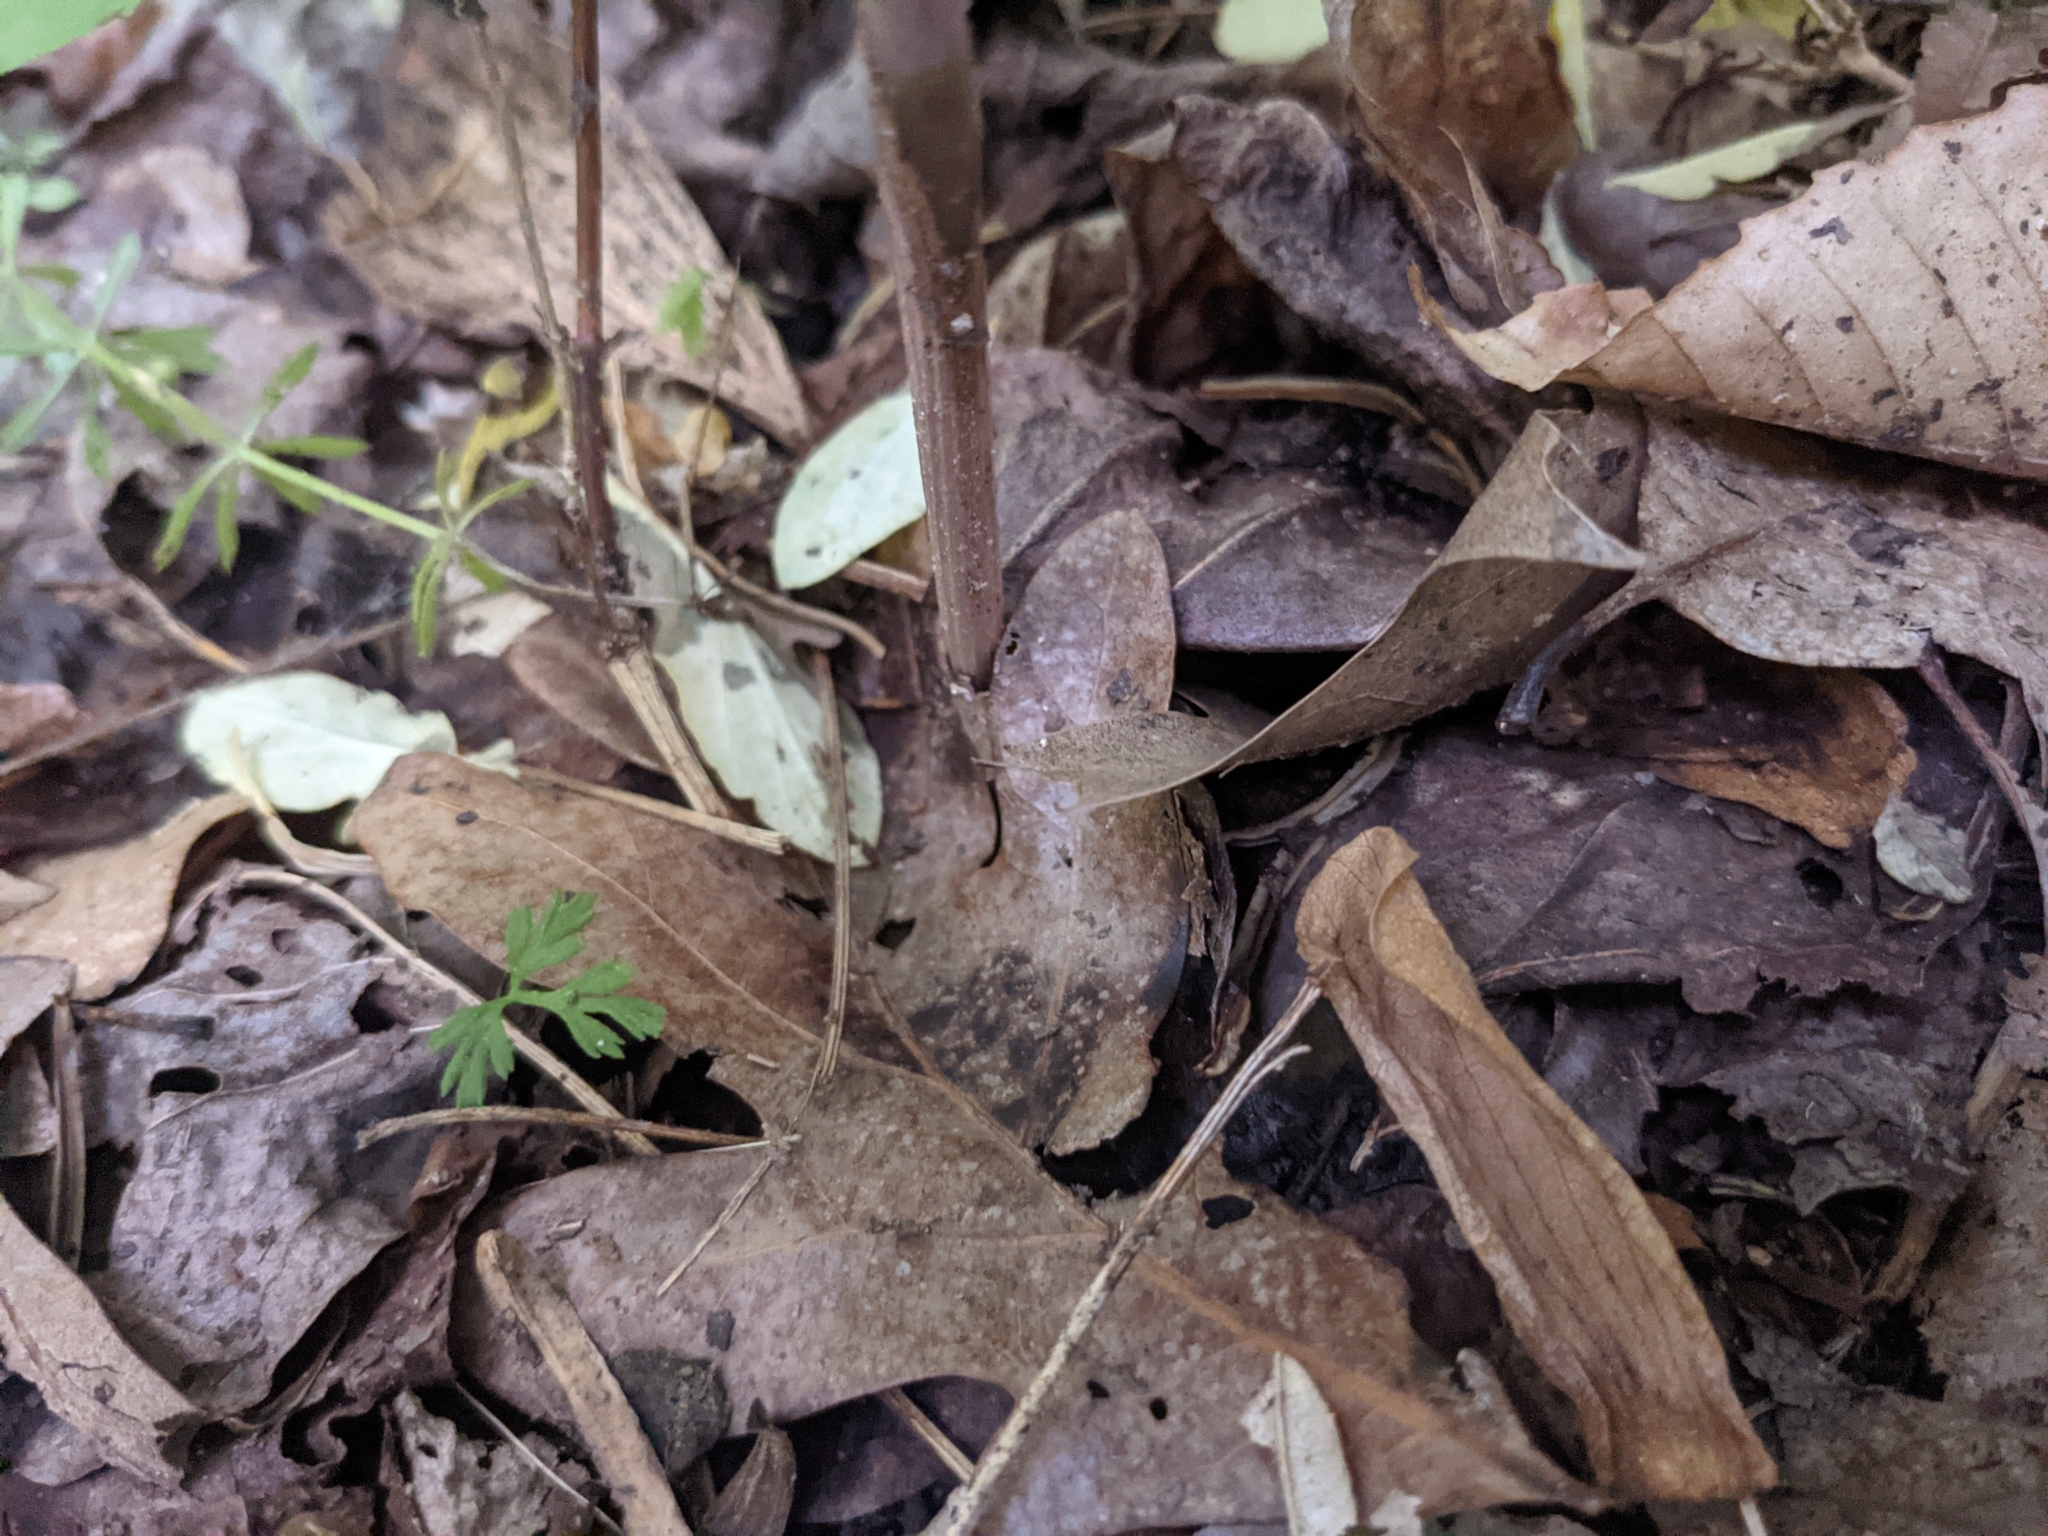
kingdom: Plantae
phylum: Tracheophyta
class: Liliopsida
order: Asparagales
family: Orchidaceae
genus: Aplectrum
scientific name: Aplectrum hyemale
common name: Adam-and-eve
